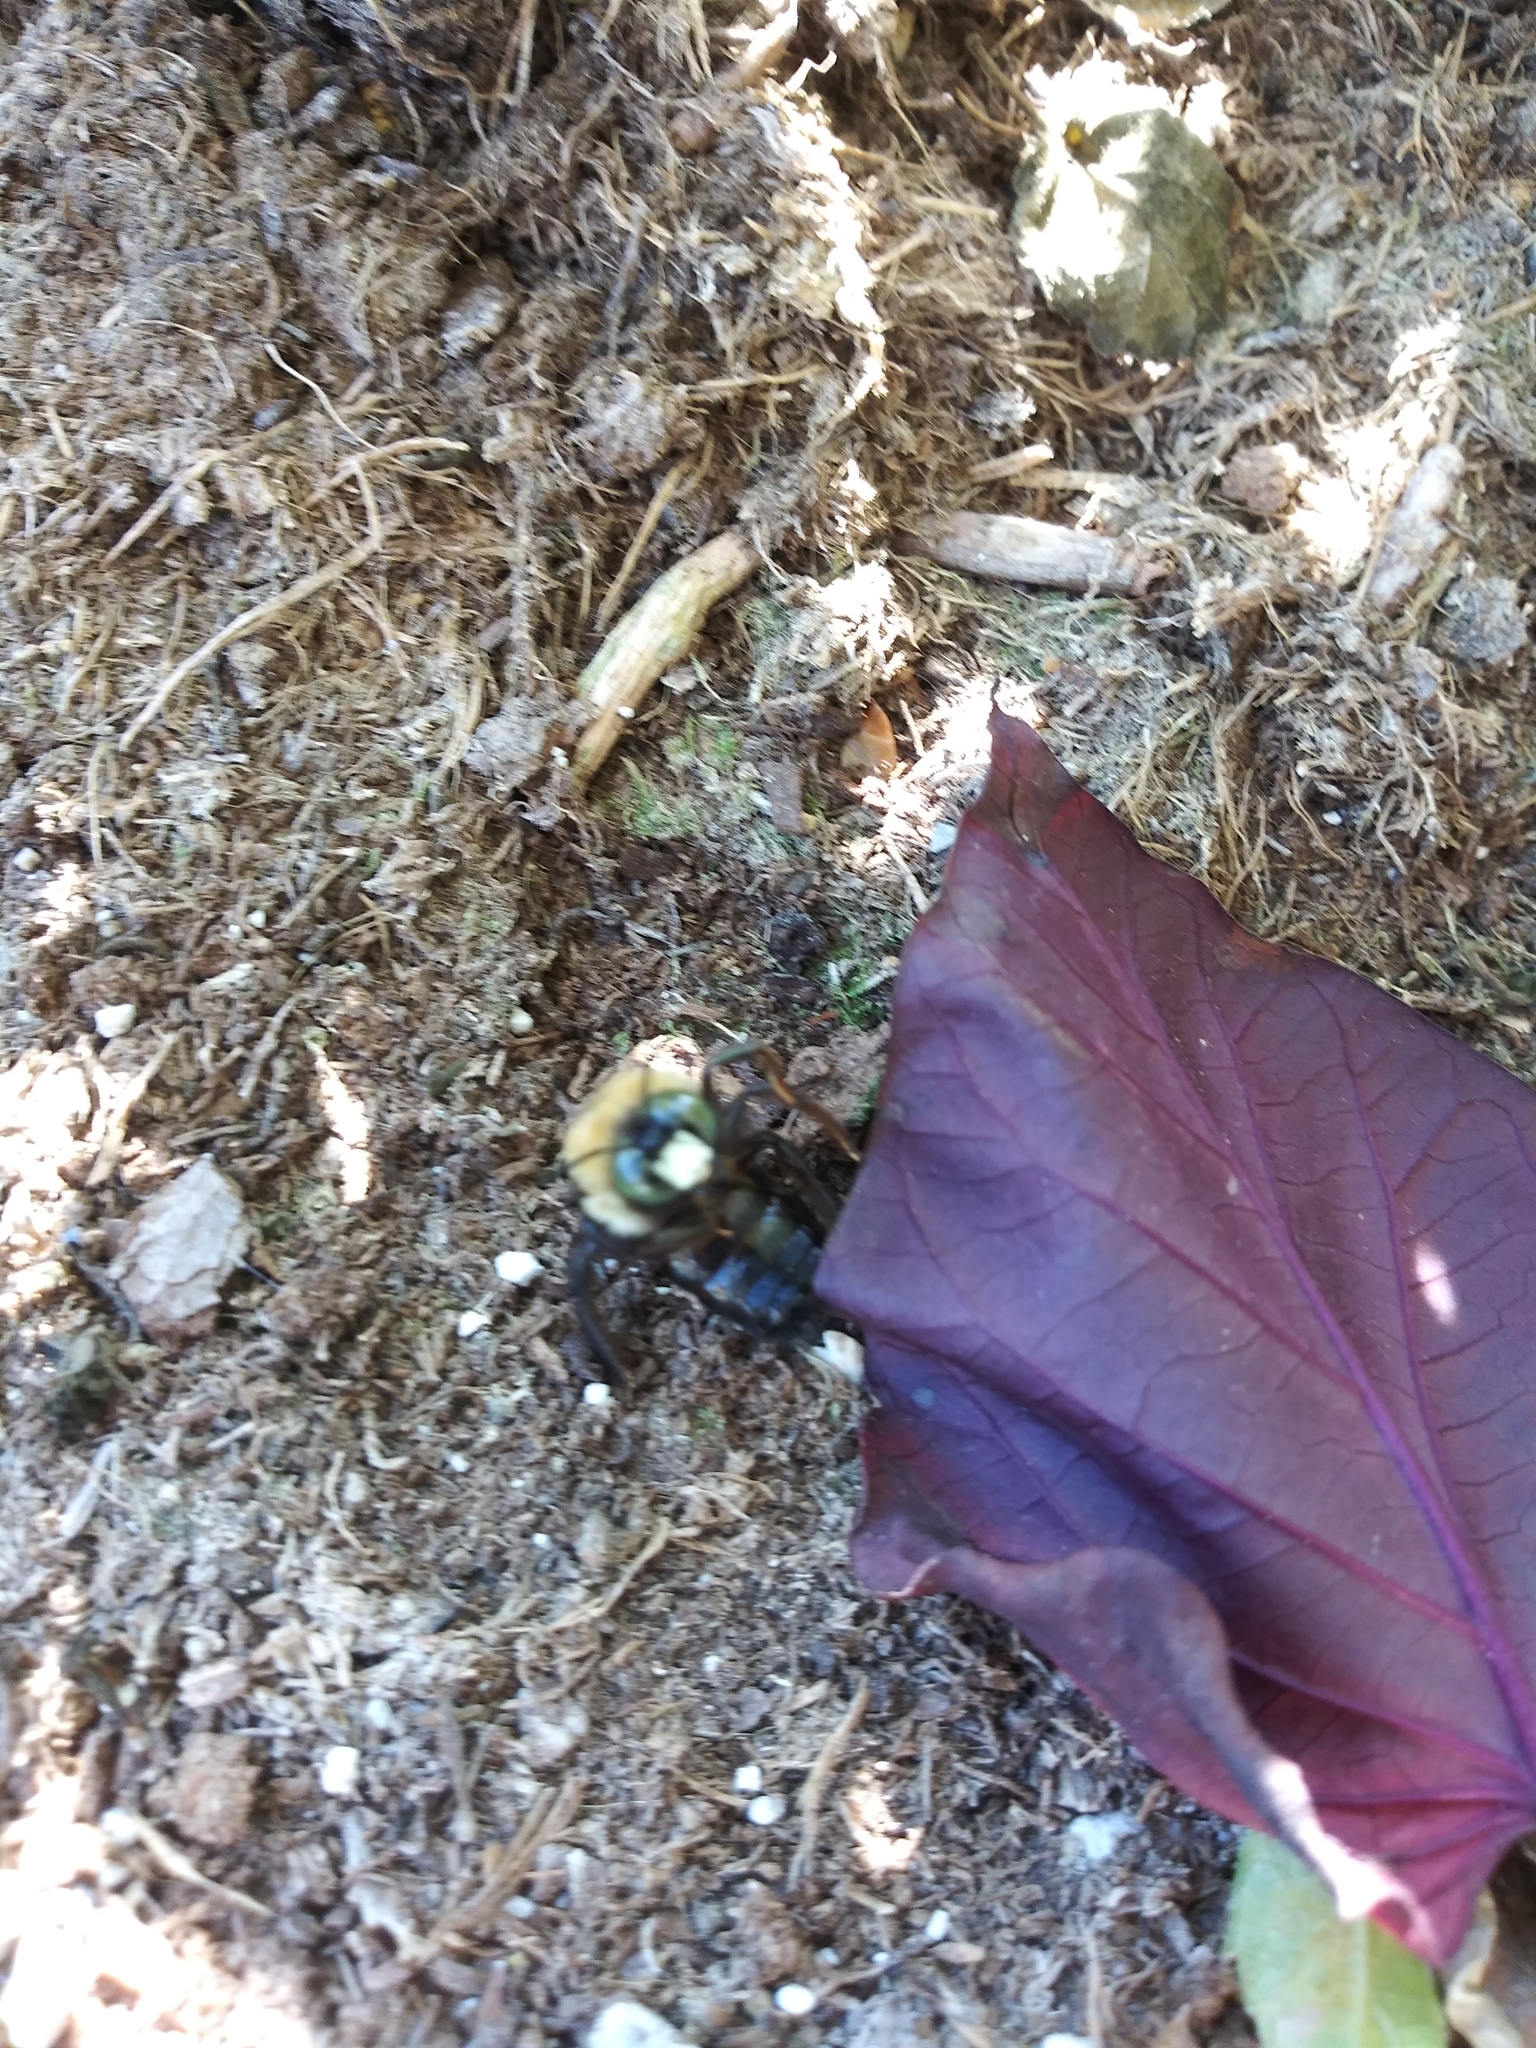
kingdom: Animalia
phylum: Arthropoda
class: Insecta
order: Hymenoptera
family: Apidae
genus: Xylocopa
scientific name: Xylocopa virginica
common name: Carpenter bee
